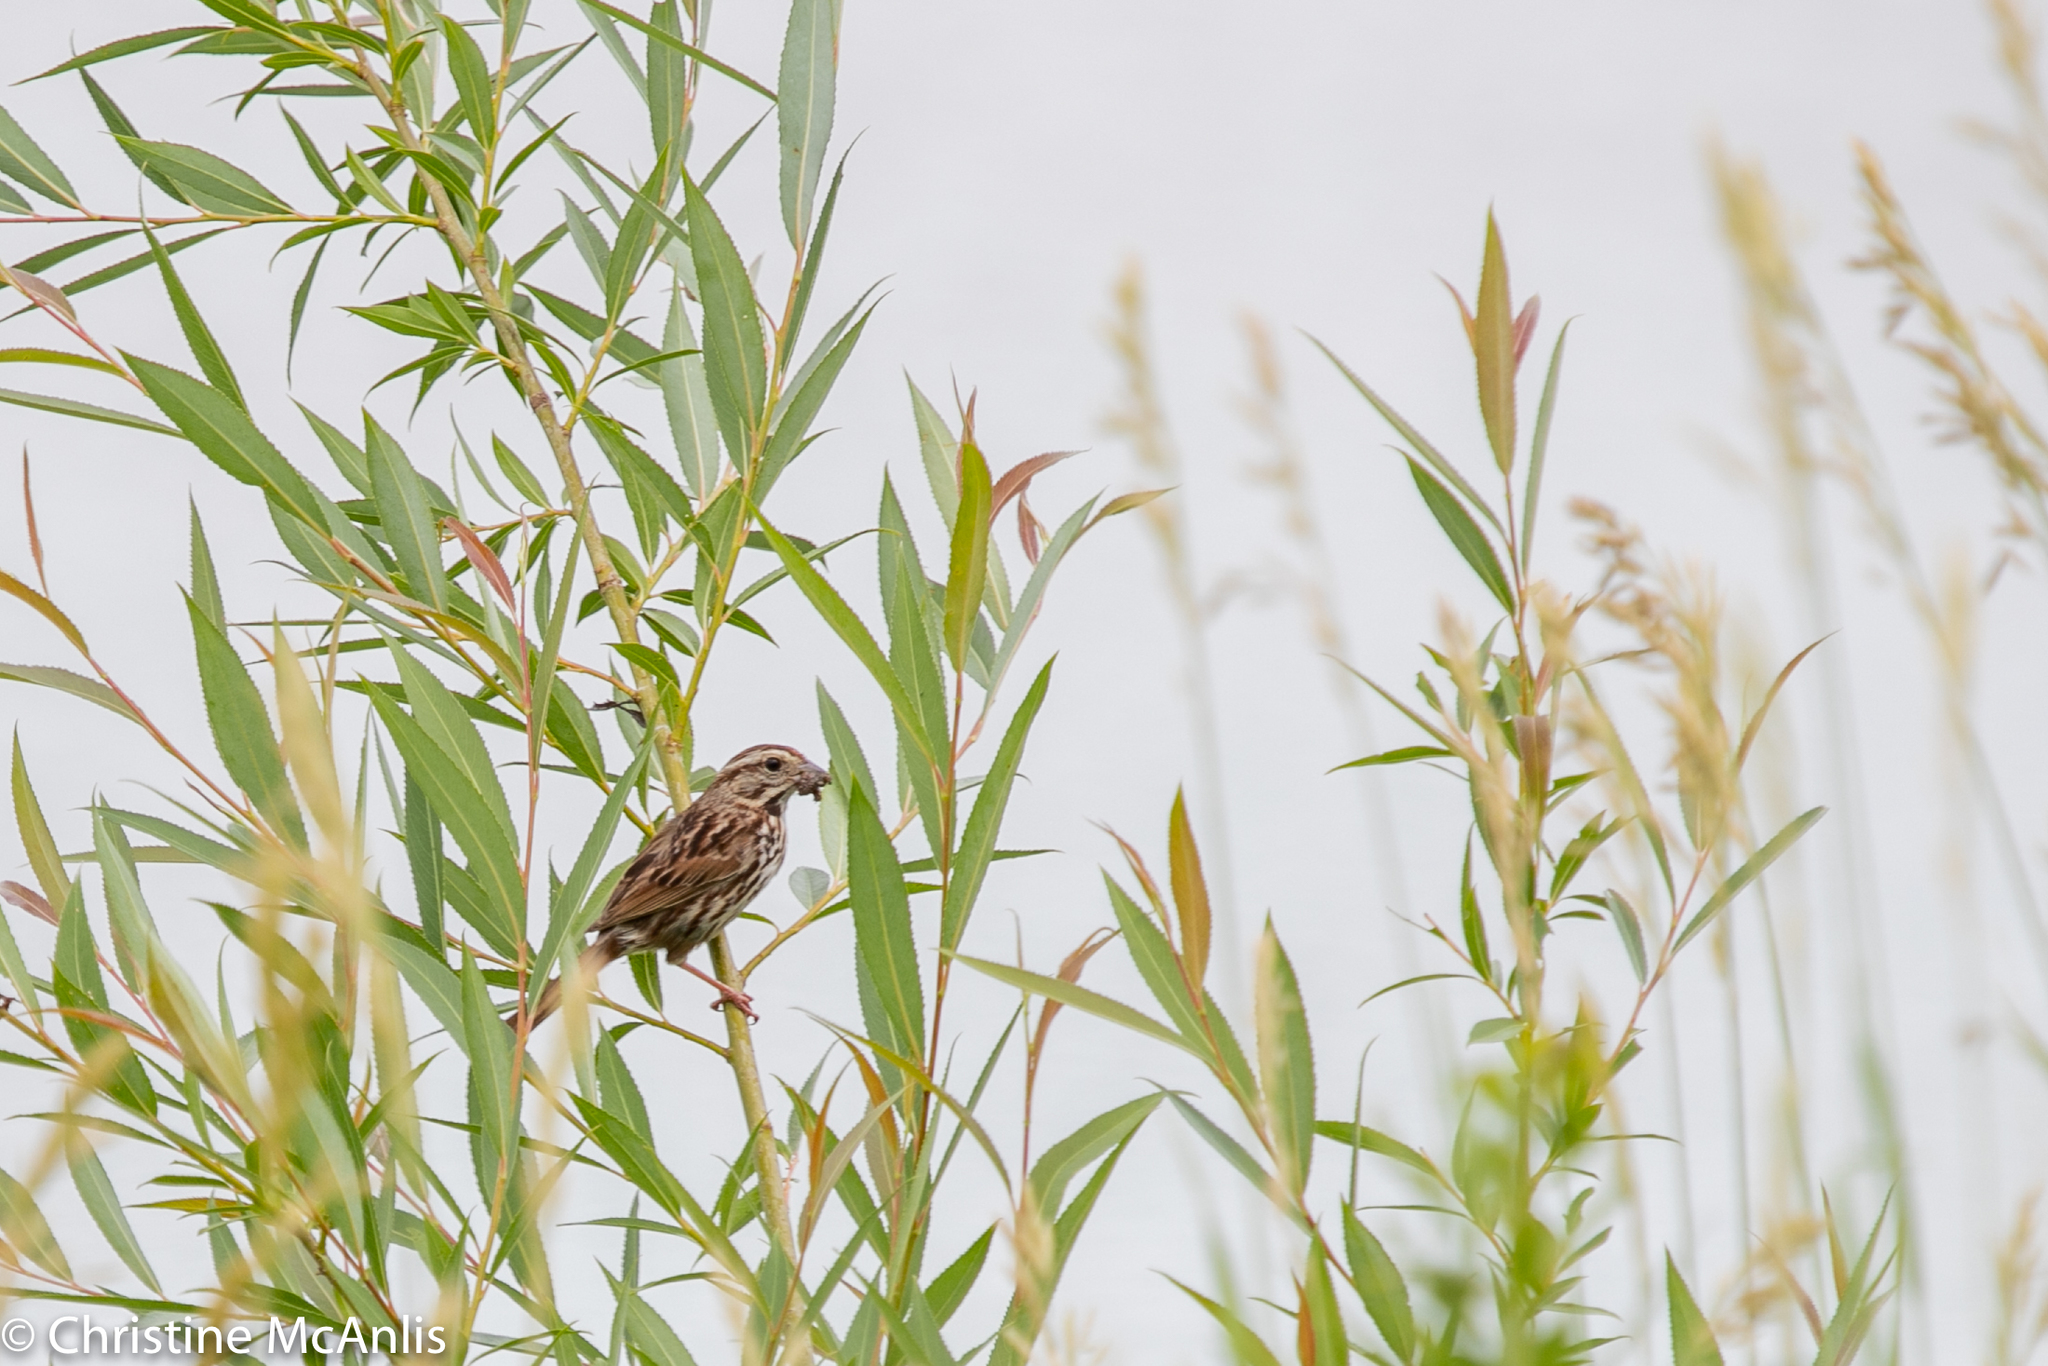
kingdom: Animalia
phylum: Chordata
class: Aves
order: Passeriformes
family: Passerellidae
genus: Melospiza
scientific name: Melospiza melodia
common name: Song sparrow
